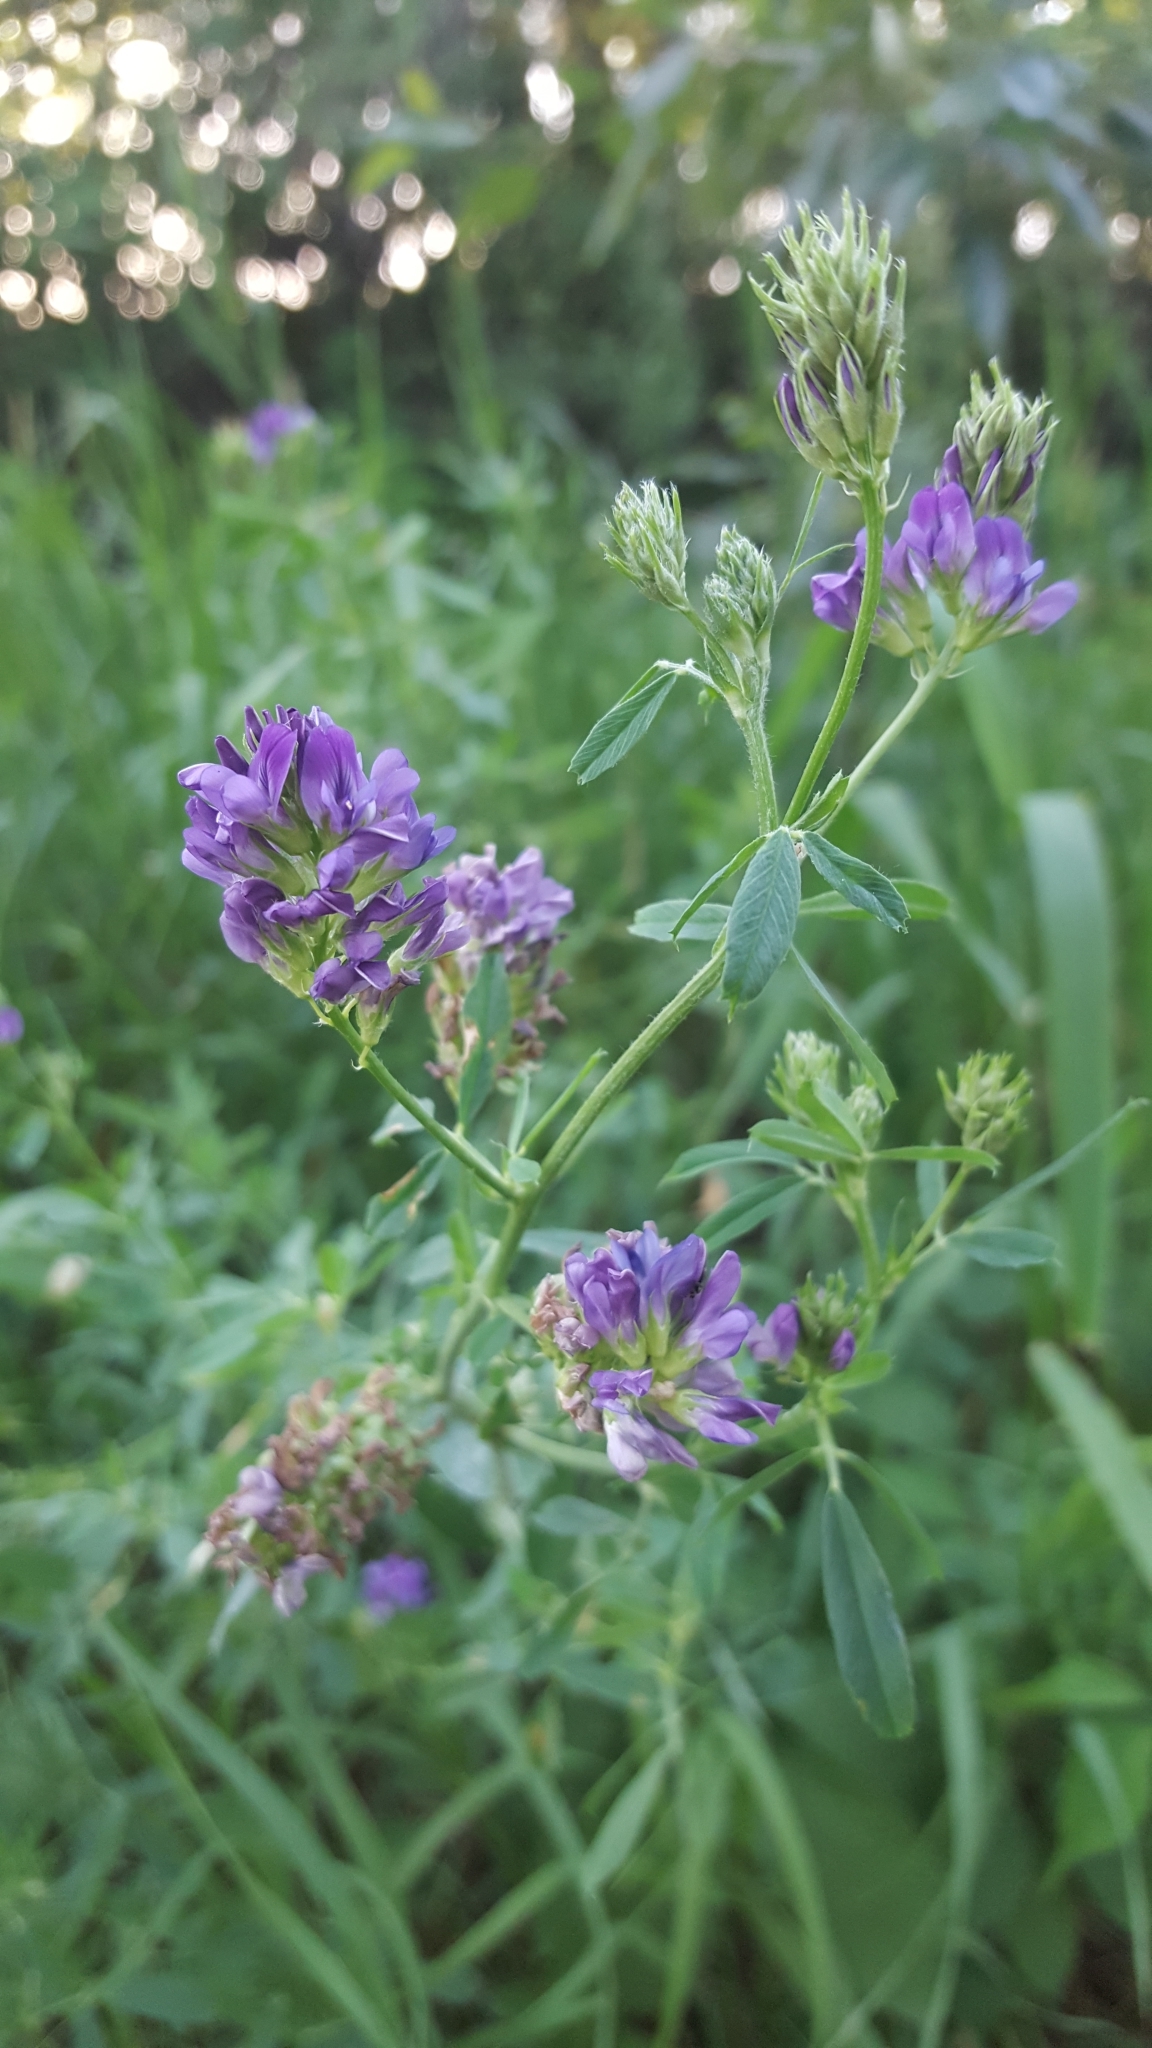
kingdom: Plantae
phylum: Tracheophyta
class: Magnoliopsida
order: Fabales
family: Fabaceae
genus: Medicago
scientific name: Medicago sativa
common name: Alfalfa
